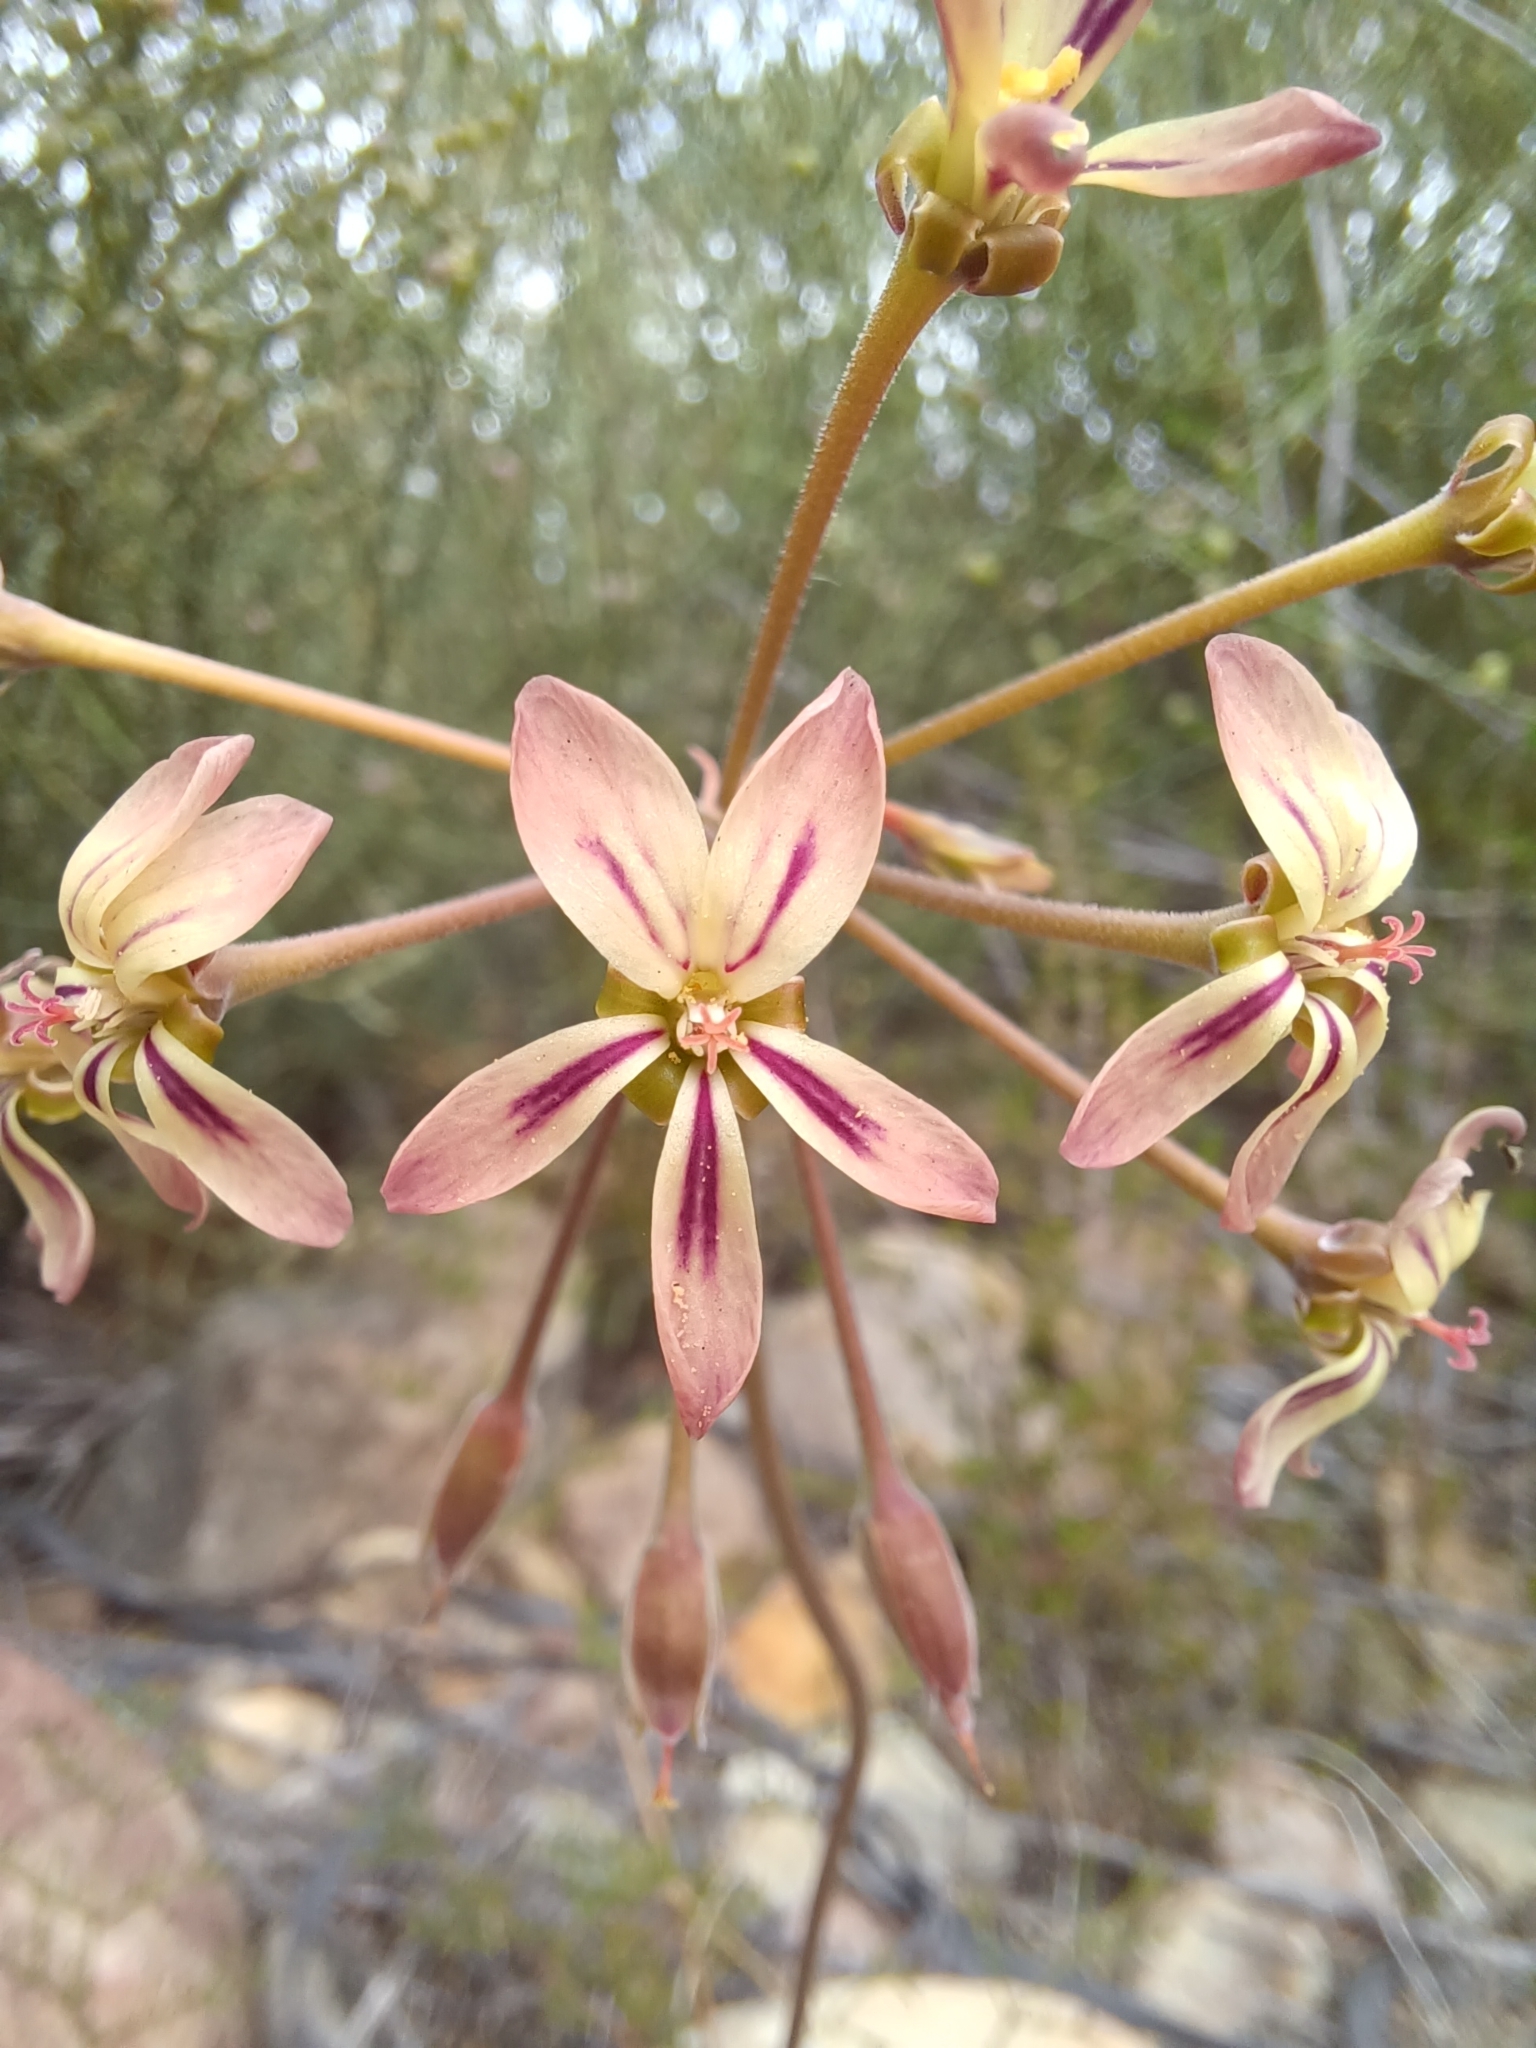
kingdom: Plantae
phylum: Tracheophyta
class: Magnoliopsida
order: Geraniales
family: Geraniaceae
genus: Pelargonium
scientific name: Pelargonium anethifolium
